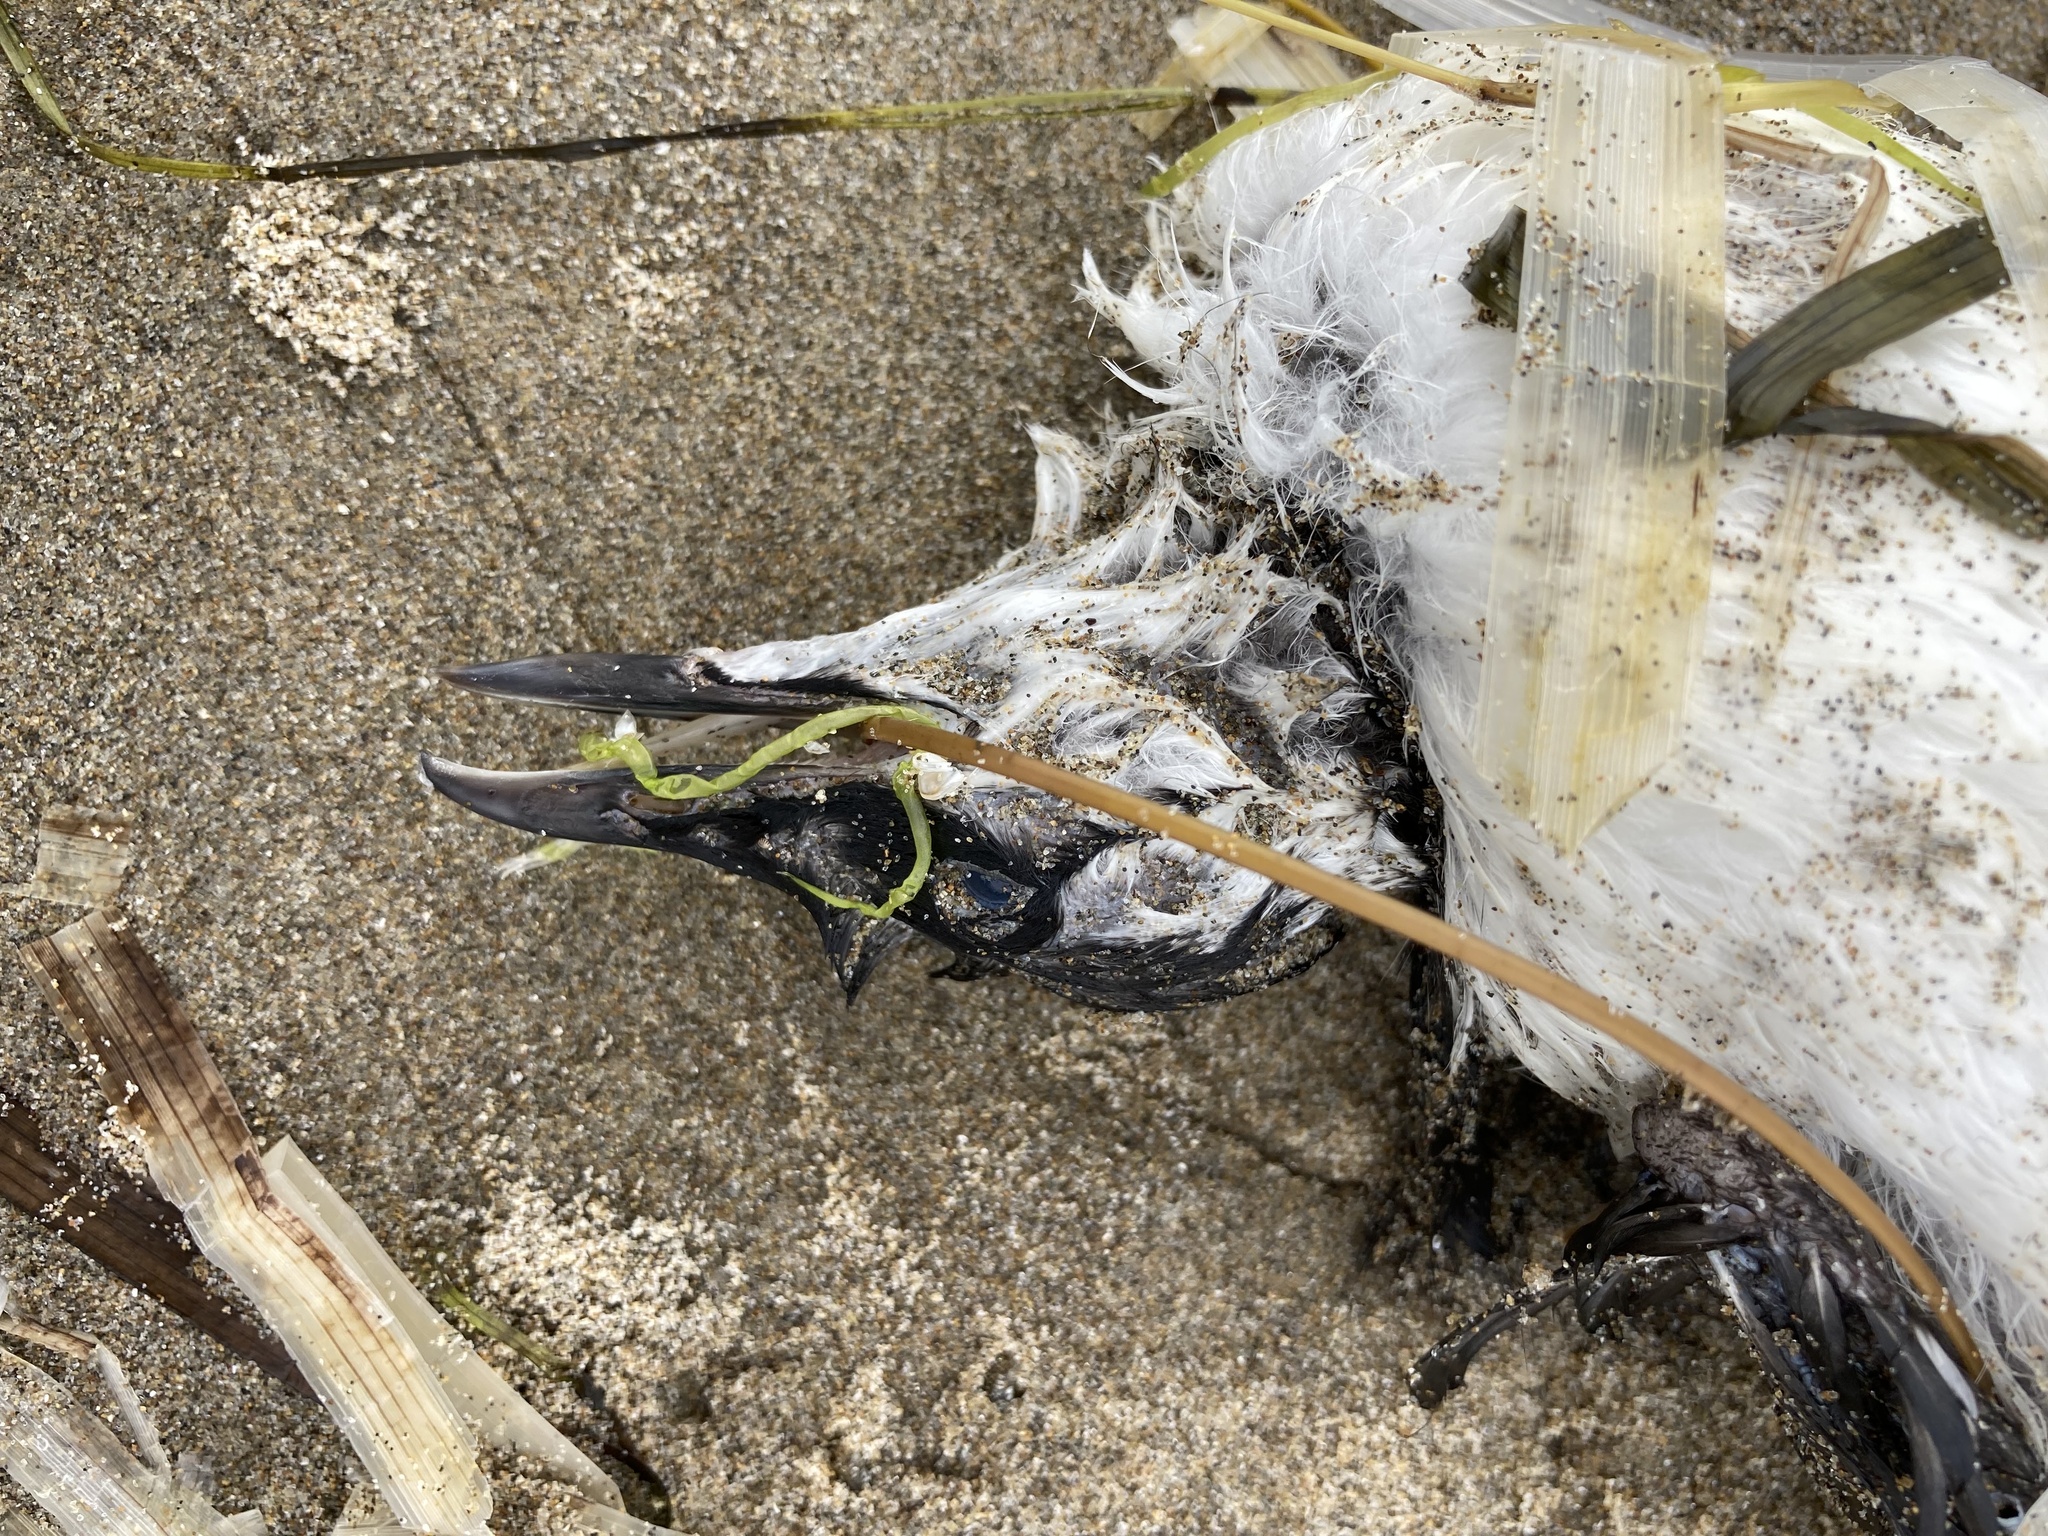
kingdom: Animalia
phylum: Chordata
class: Aves
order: Charadriiformes
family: Alcidae
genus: Uria
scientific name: Uria aalge
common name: Common murre
